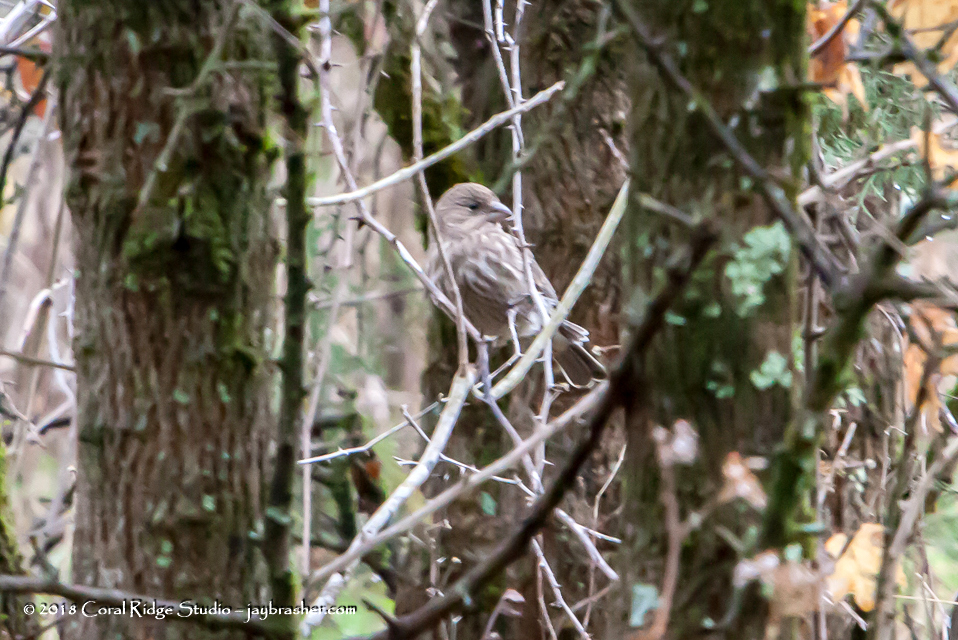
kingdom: Animalia
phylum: Chordata
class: Aves
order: Passeriformes
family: Fringillidae
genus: Haemorhous
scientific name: Haemorhous mexicanus
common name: House finch
